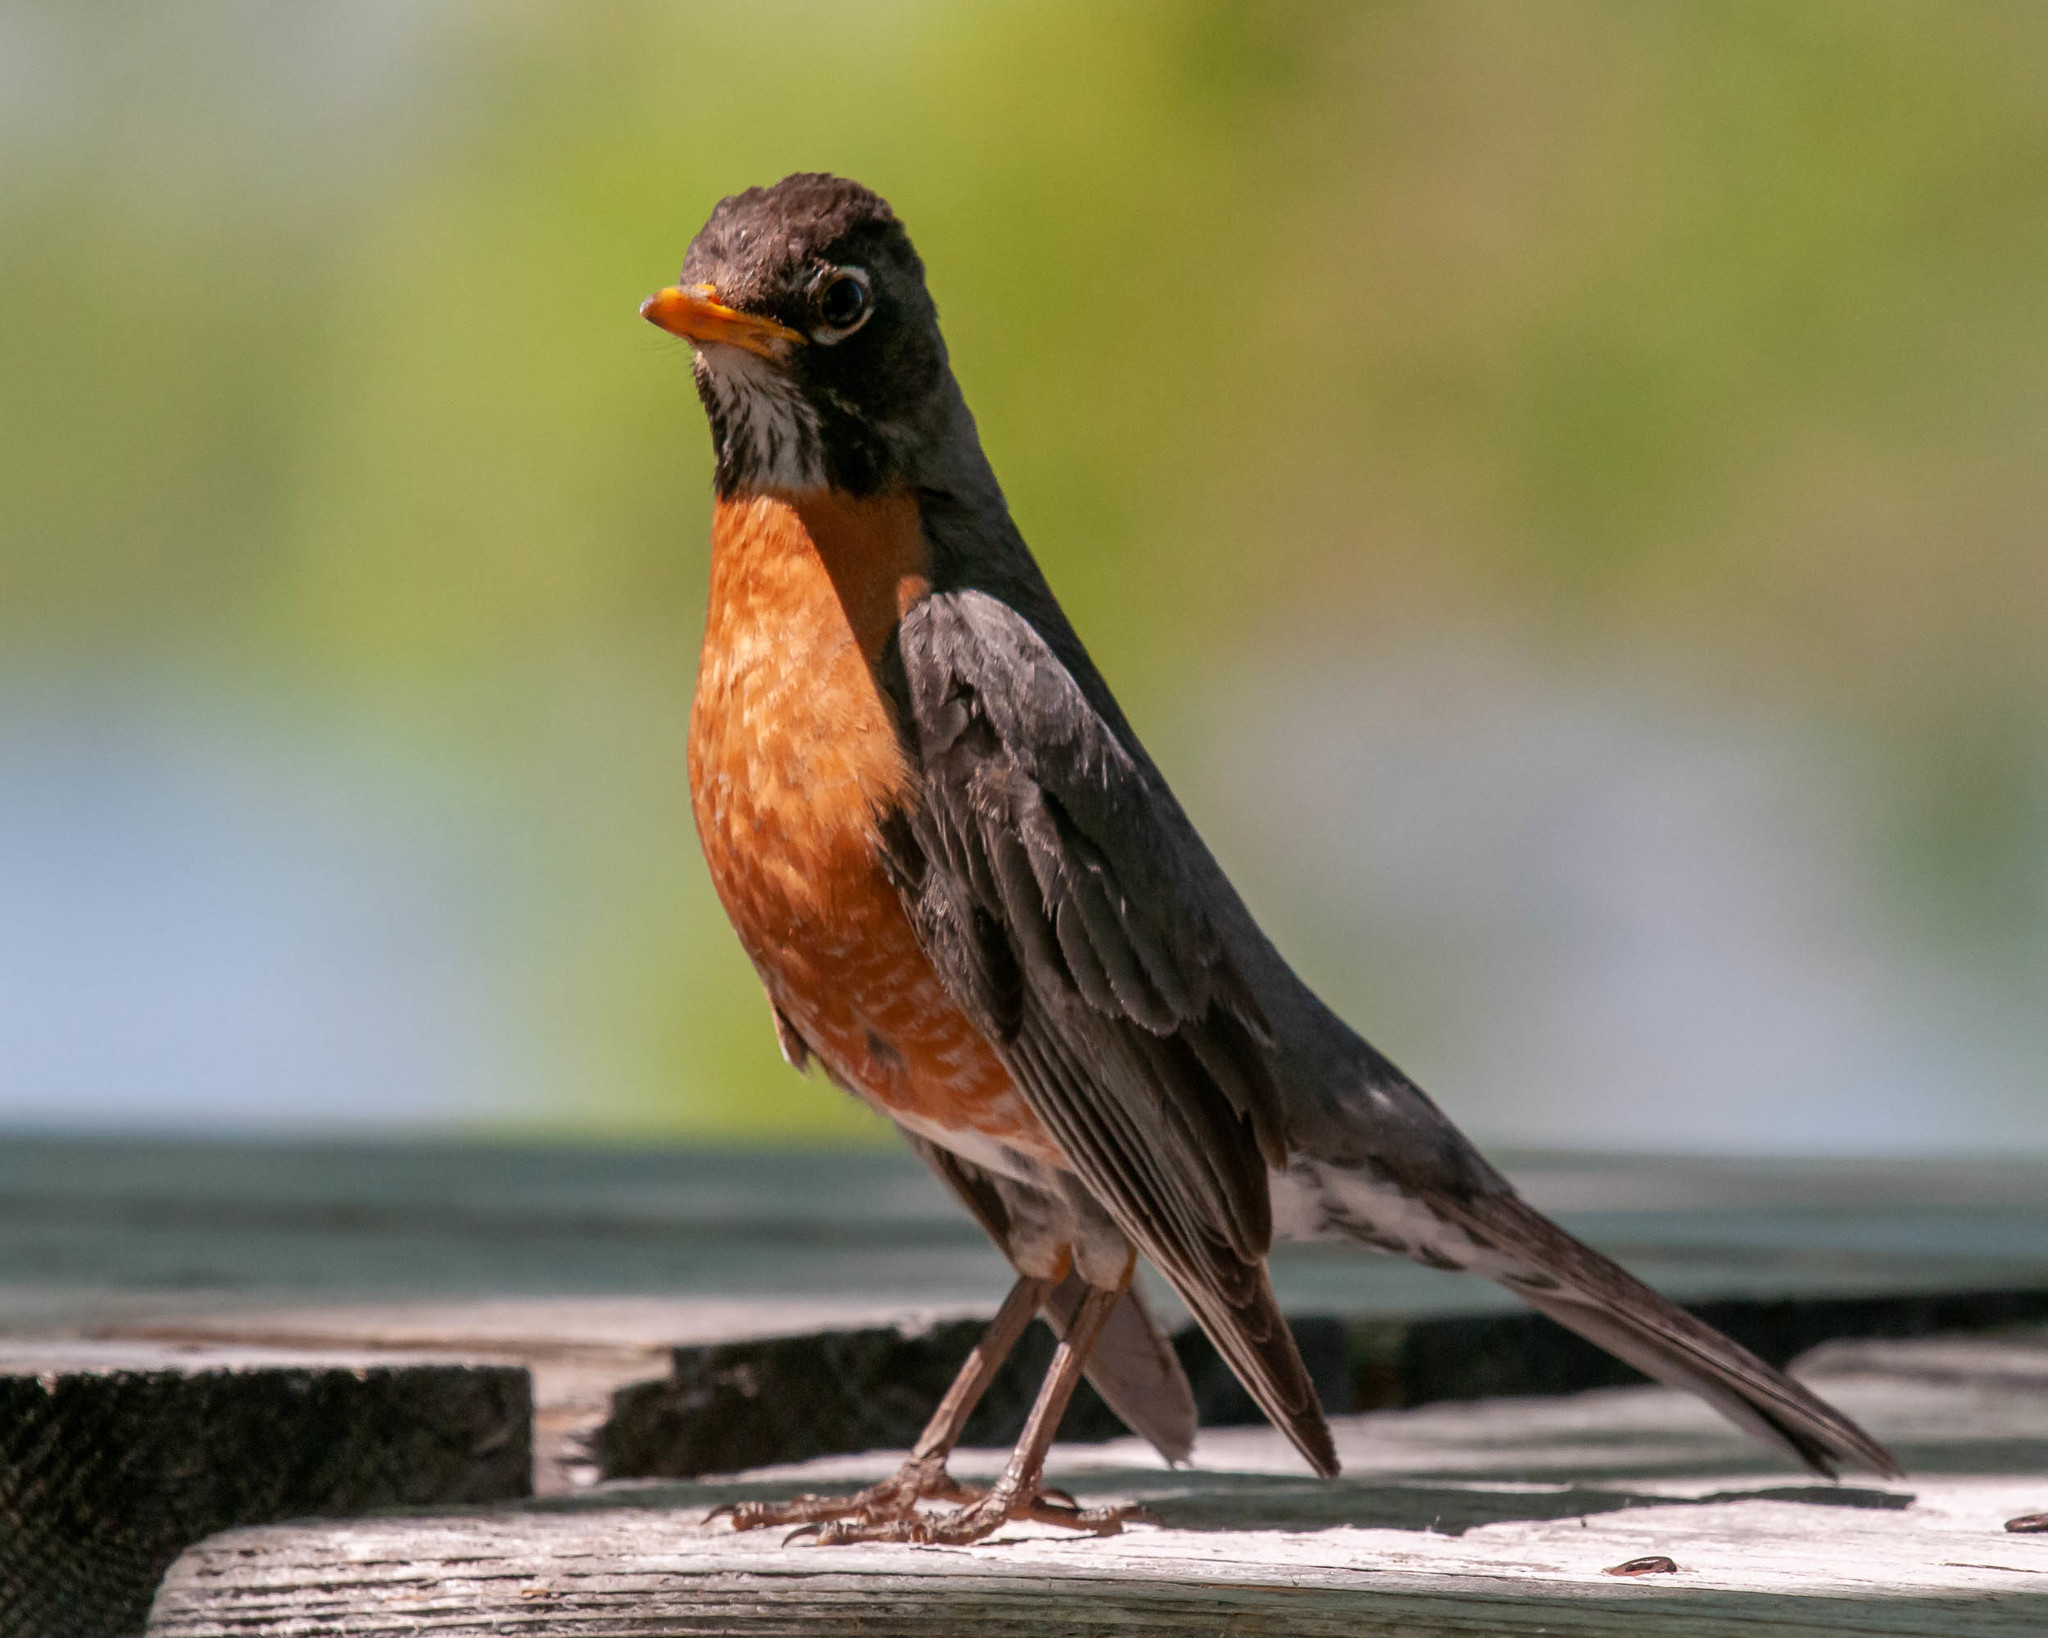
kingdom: Animalia
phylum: Chordata
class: Aves
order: Passeriformes
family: Turdidae
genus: Turdus
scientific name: Turdus migratorius
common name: American robin
